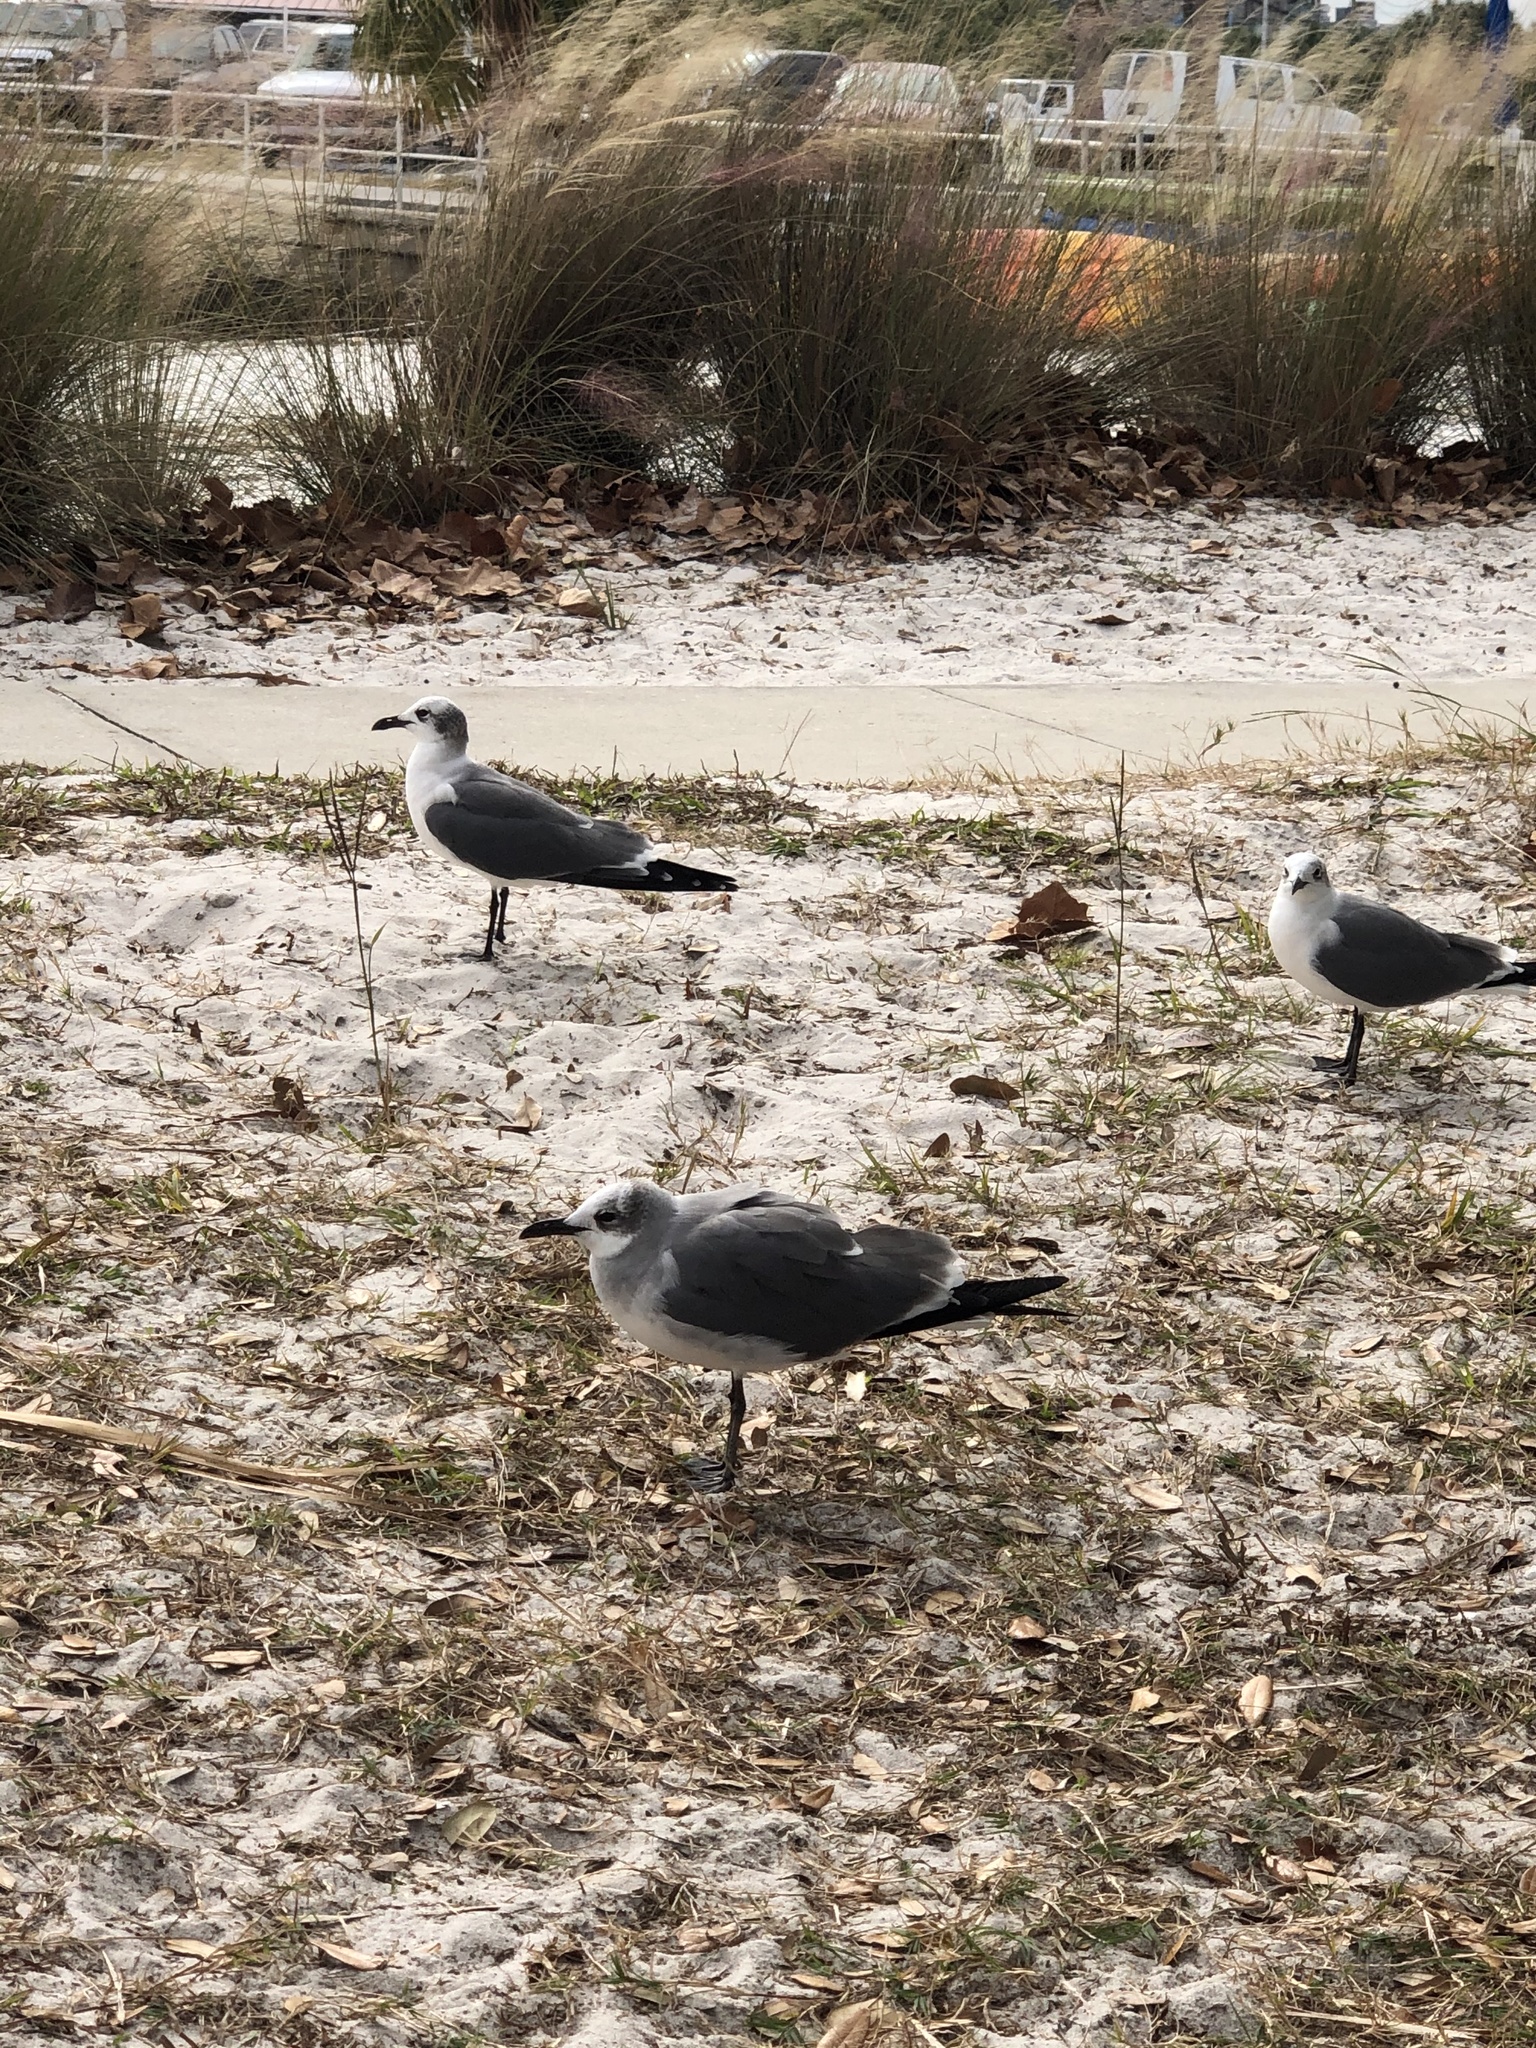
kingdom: Animalia
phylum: Chordata
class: Aves
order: Charadriiformes
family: Laridae
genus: Leucophaeus
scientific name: Leucophaeus atricilla
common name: Laughing gull
